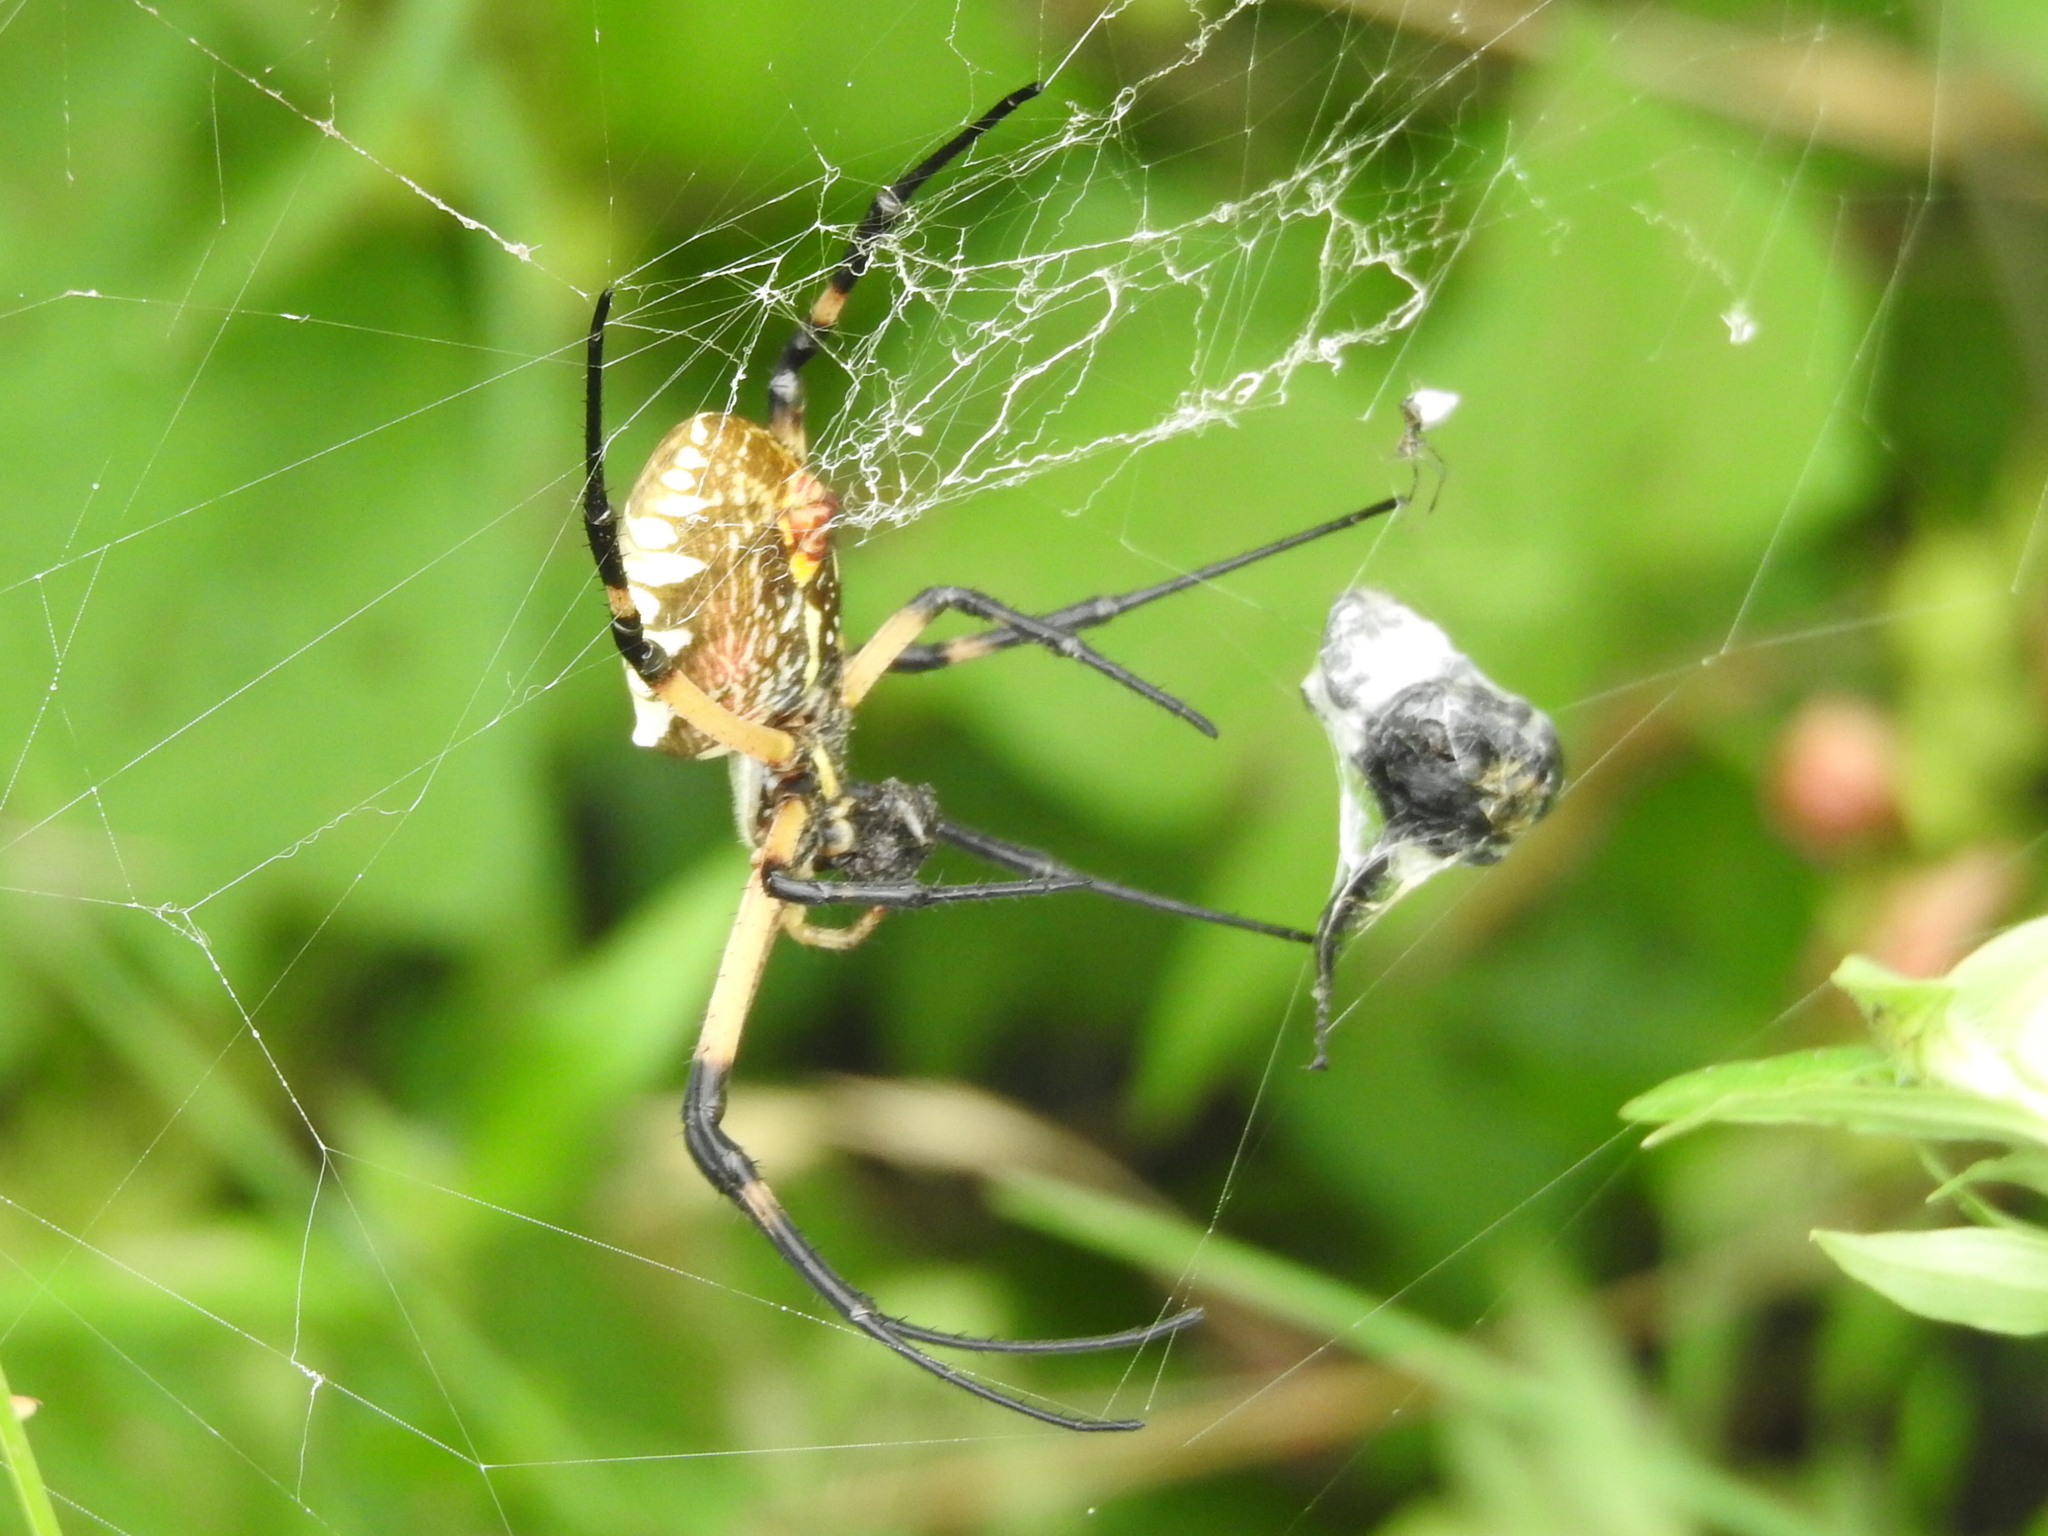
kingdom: Animalia
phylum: Arthropoda
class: Arachnida
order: Araneae
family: Araneidae
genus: Argiope
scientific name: Argiope aurantia
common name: Orb weavers
